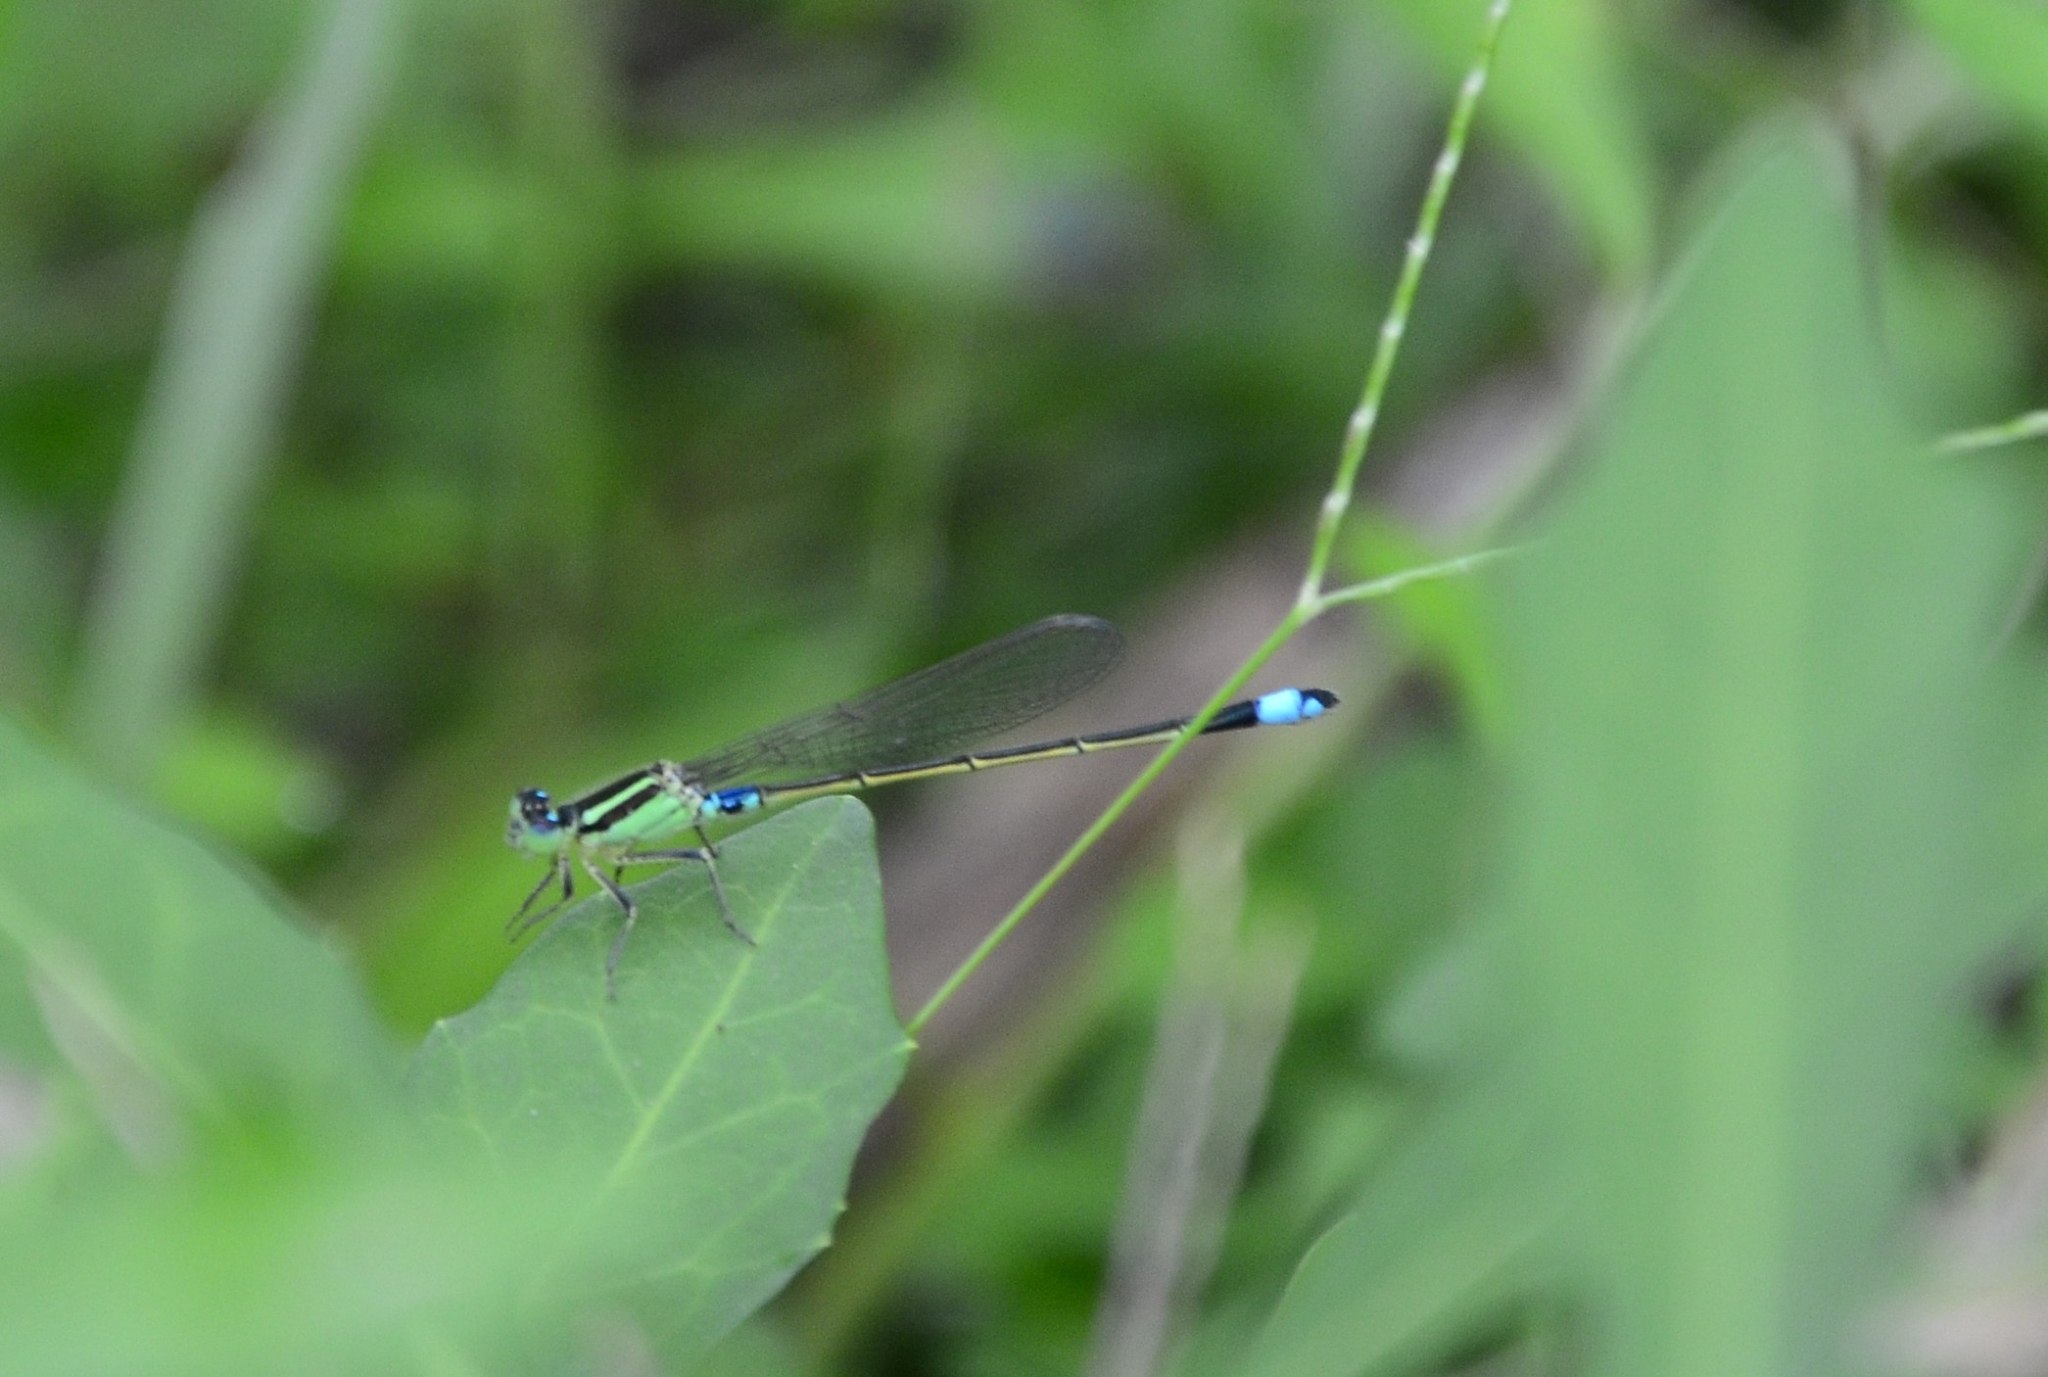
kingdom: Animalia
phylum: Arthropoda
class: Insecta
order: Odonata
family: Coenagrionidae
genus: Ischnura
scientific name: Ischnura senegalensis
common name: Tropical bluetail
